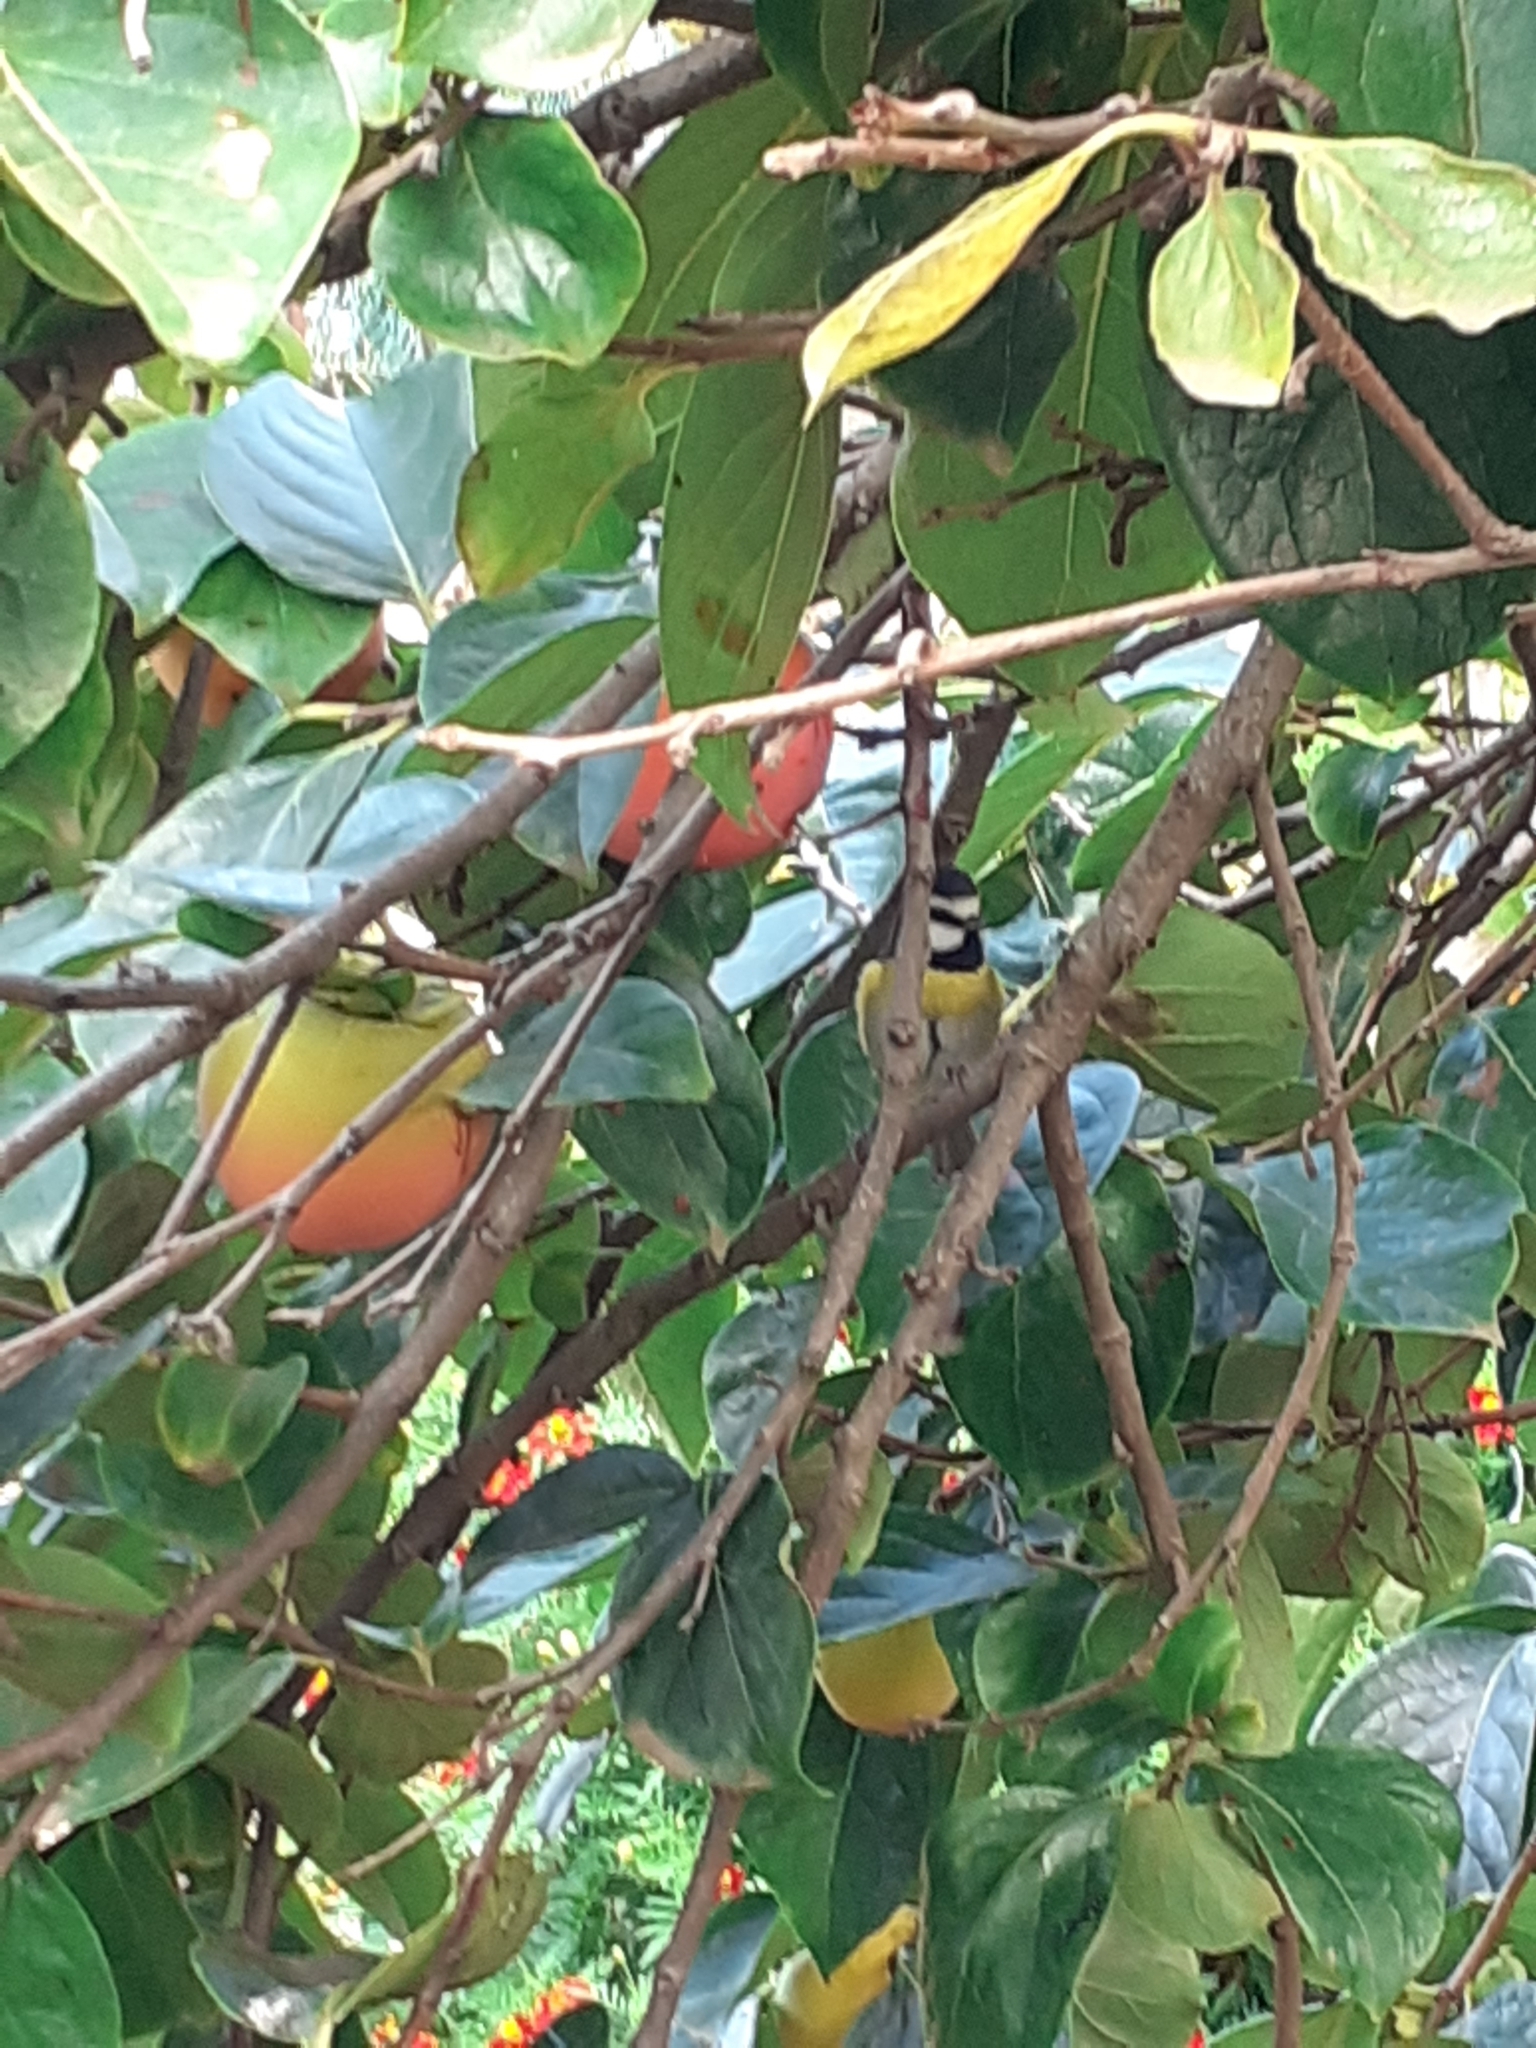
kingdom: Animalia
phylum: Chordata
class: Aves
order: Passeriformes
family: Paridae
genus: Cyanistes
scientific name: Cyanistes teneriffae
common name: African blue tit
